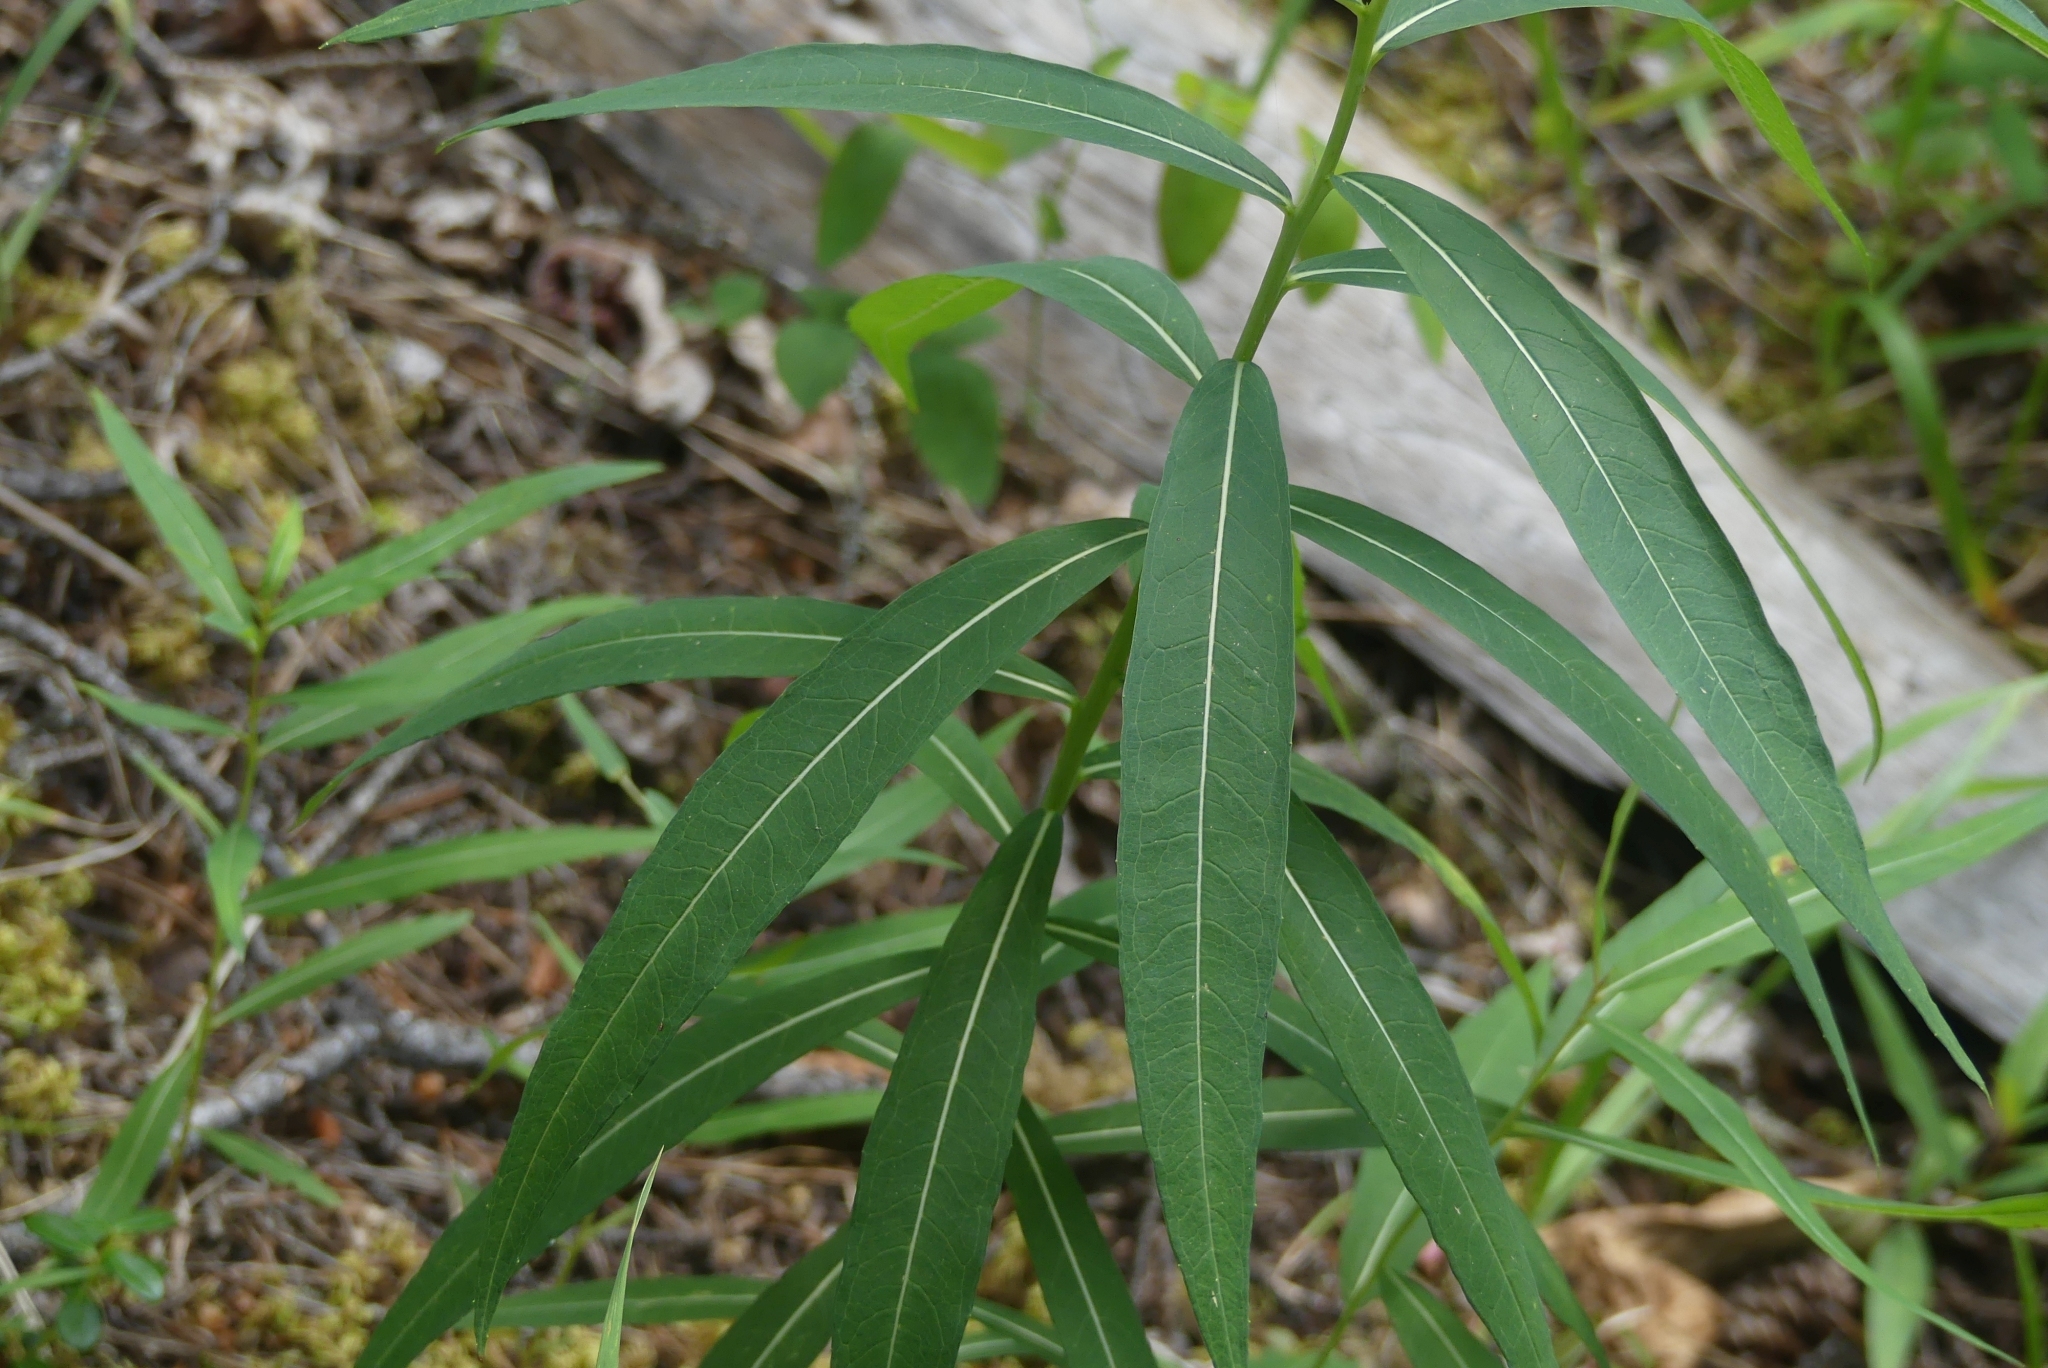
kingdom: Plantae
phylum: Tracheophyta
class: Magnoliopsida
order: Myrtales
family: Onagraceae
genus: Chamaenerion
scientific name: Chamaenerion angustifolium
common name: Fireweed
